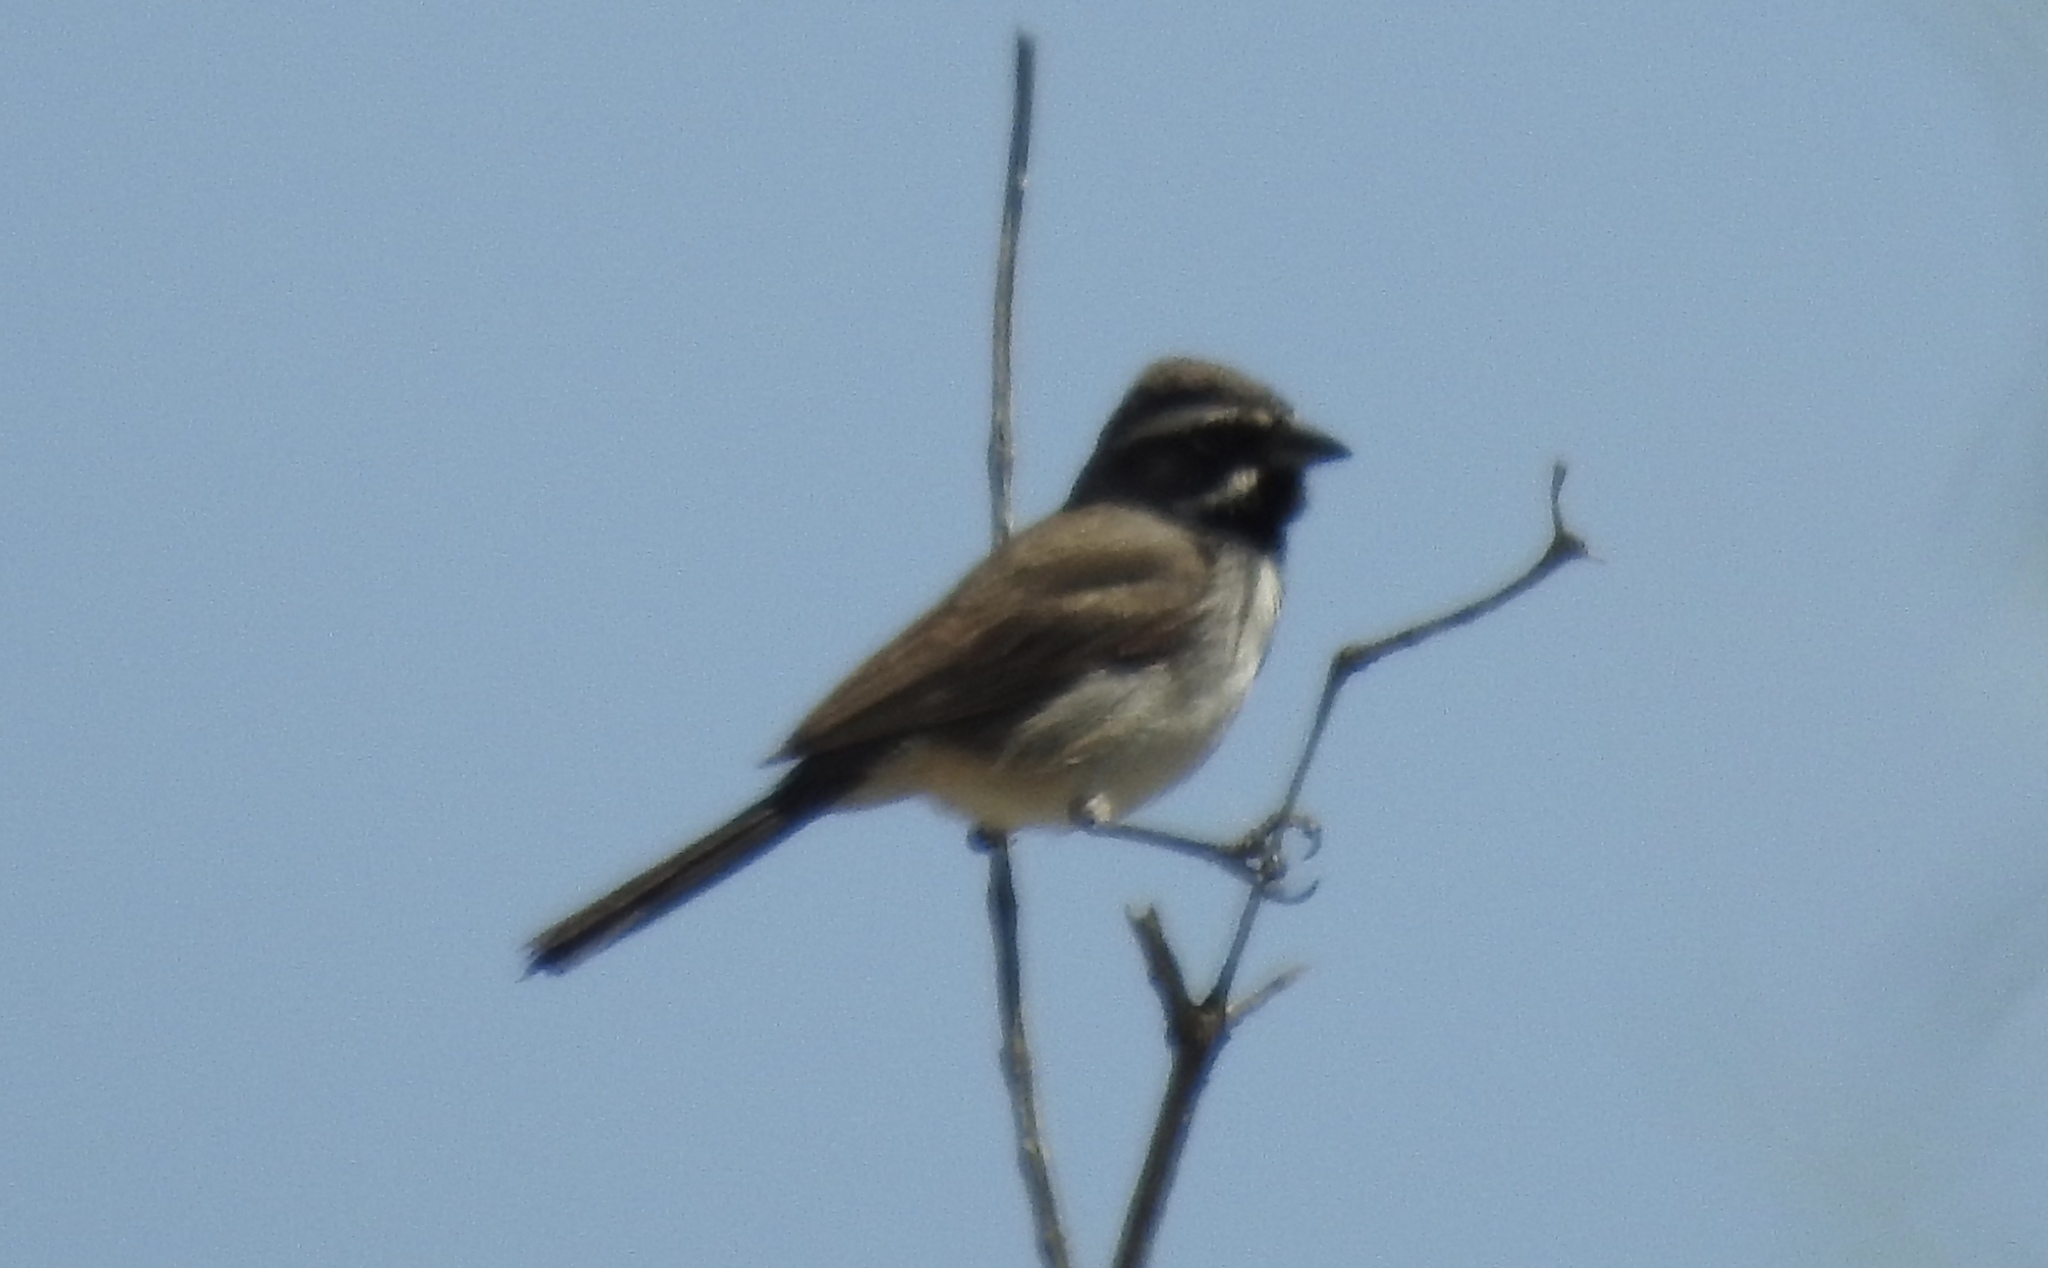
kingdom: Animalia
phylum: Chordata
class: Aves
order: Passeriformes
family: Passerellidae
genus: Amphispiza
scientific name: Amphispiza bilineata
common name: Black-throated sparrow
